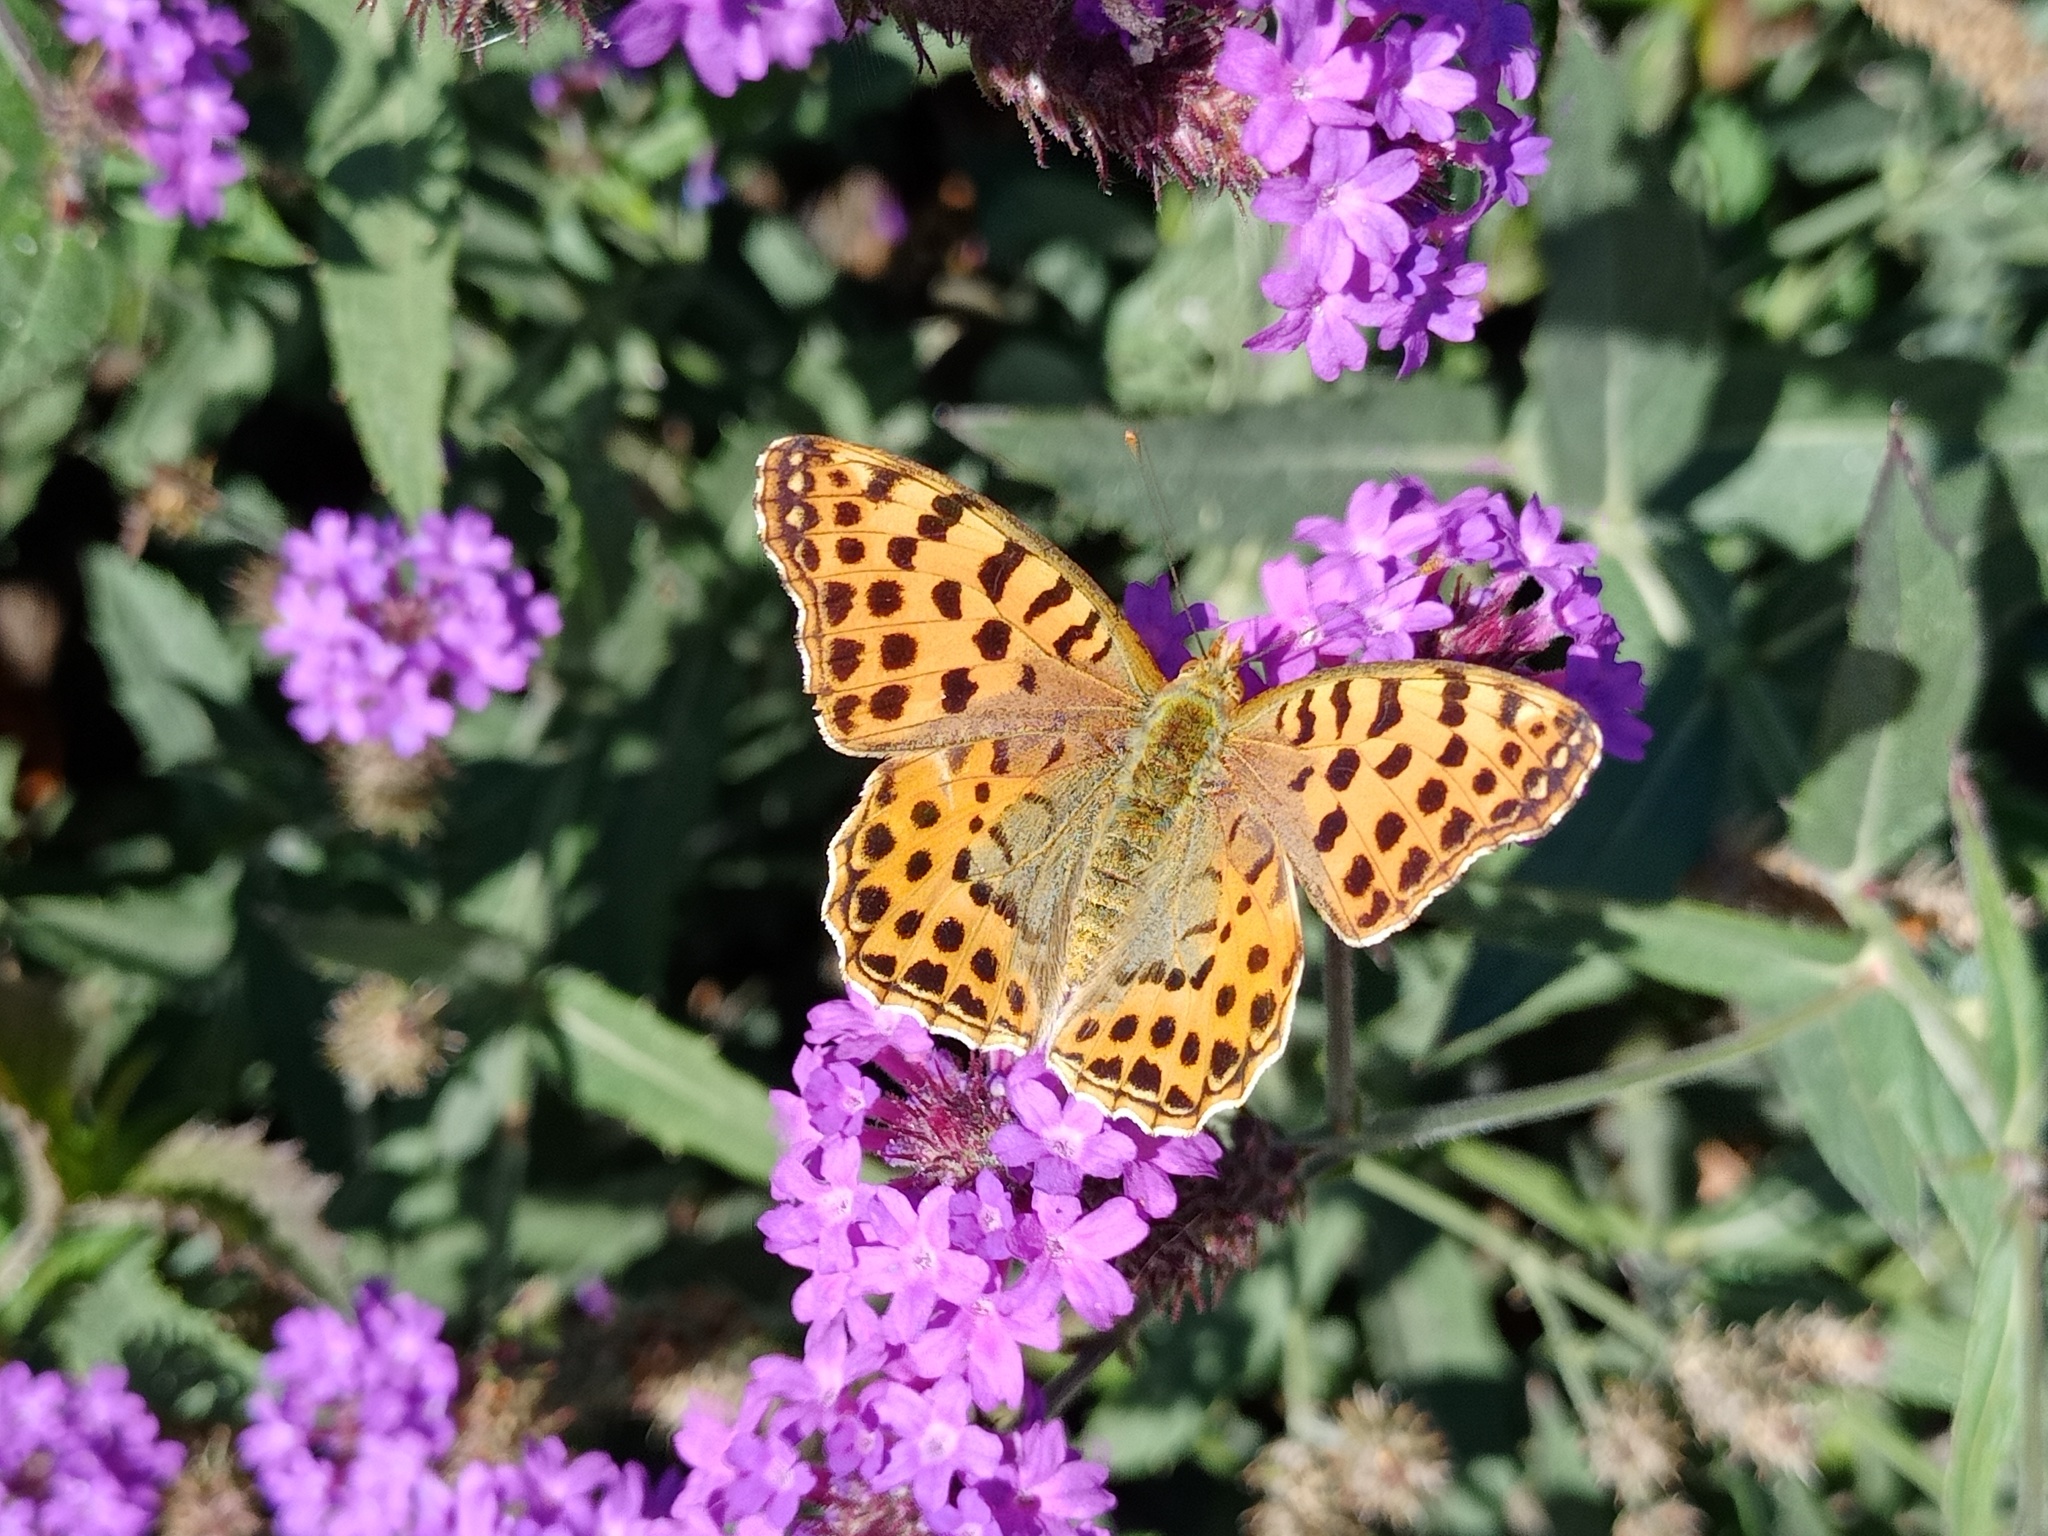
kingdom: Animalia
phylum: Arthropoda
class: Insecta
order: Lepidoptera
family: Nymphalidae
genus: Issoria
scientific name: Issoria lathonia
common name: Queen of spain fritillary
